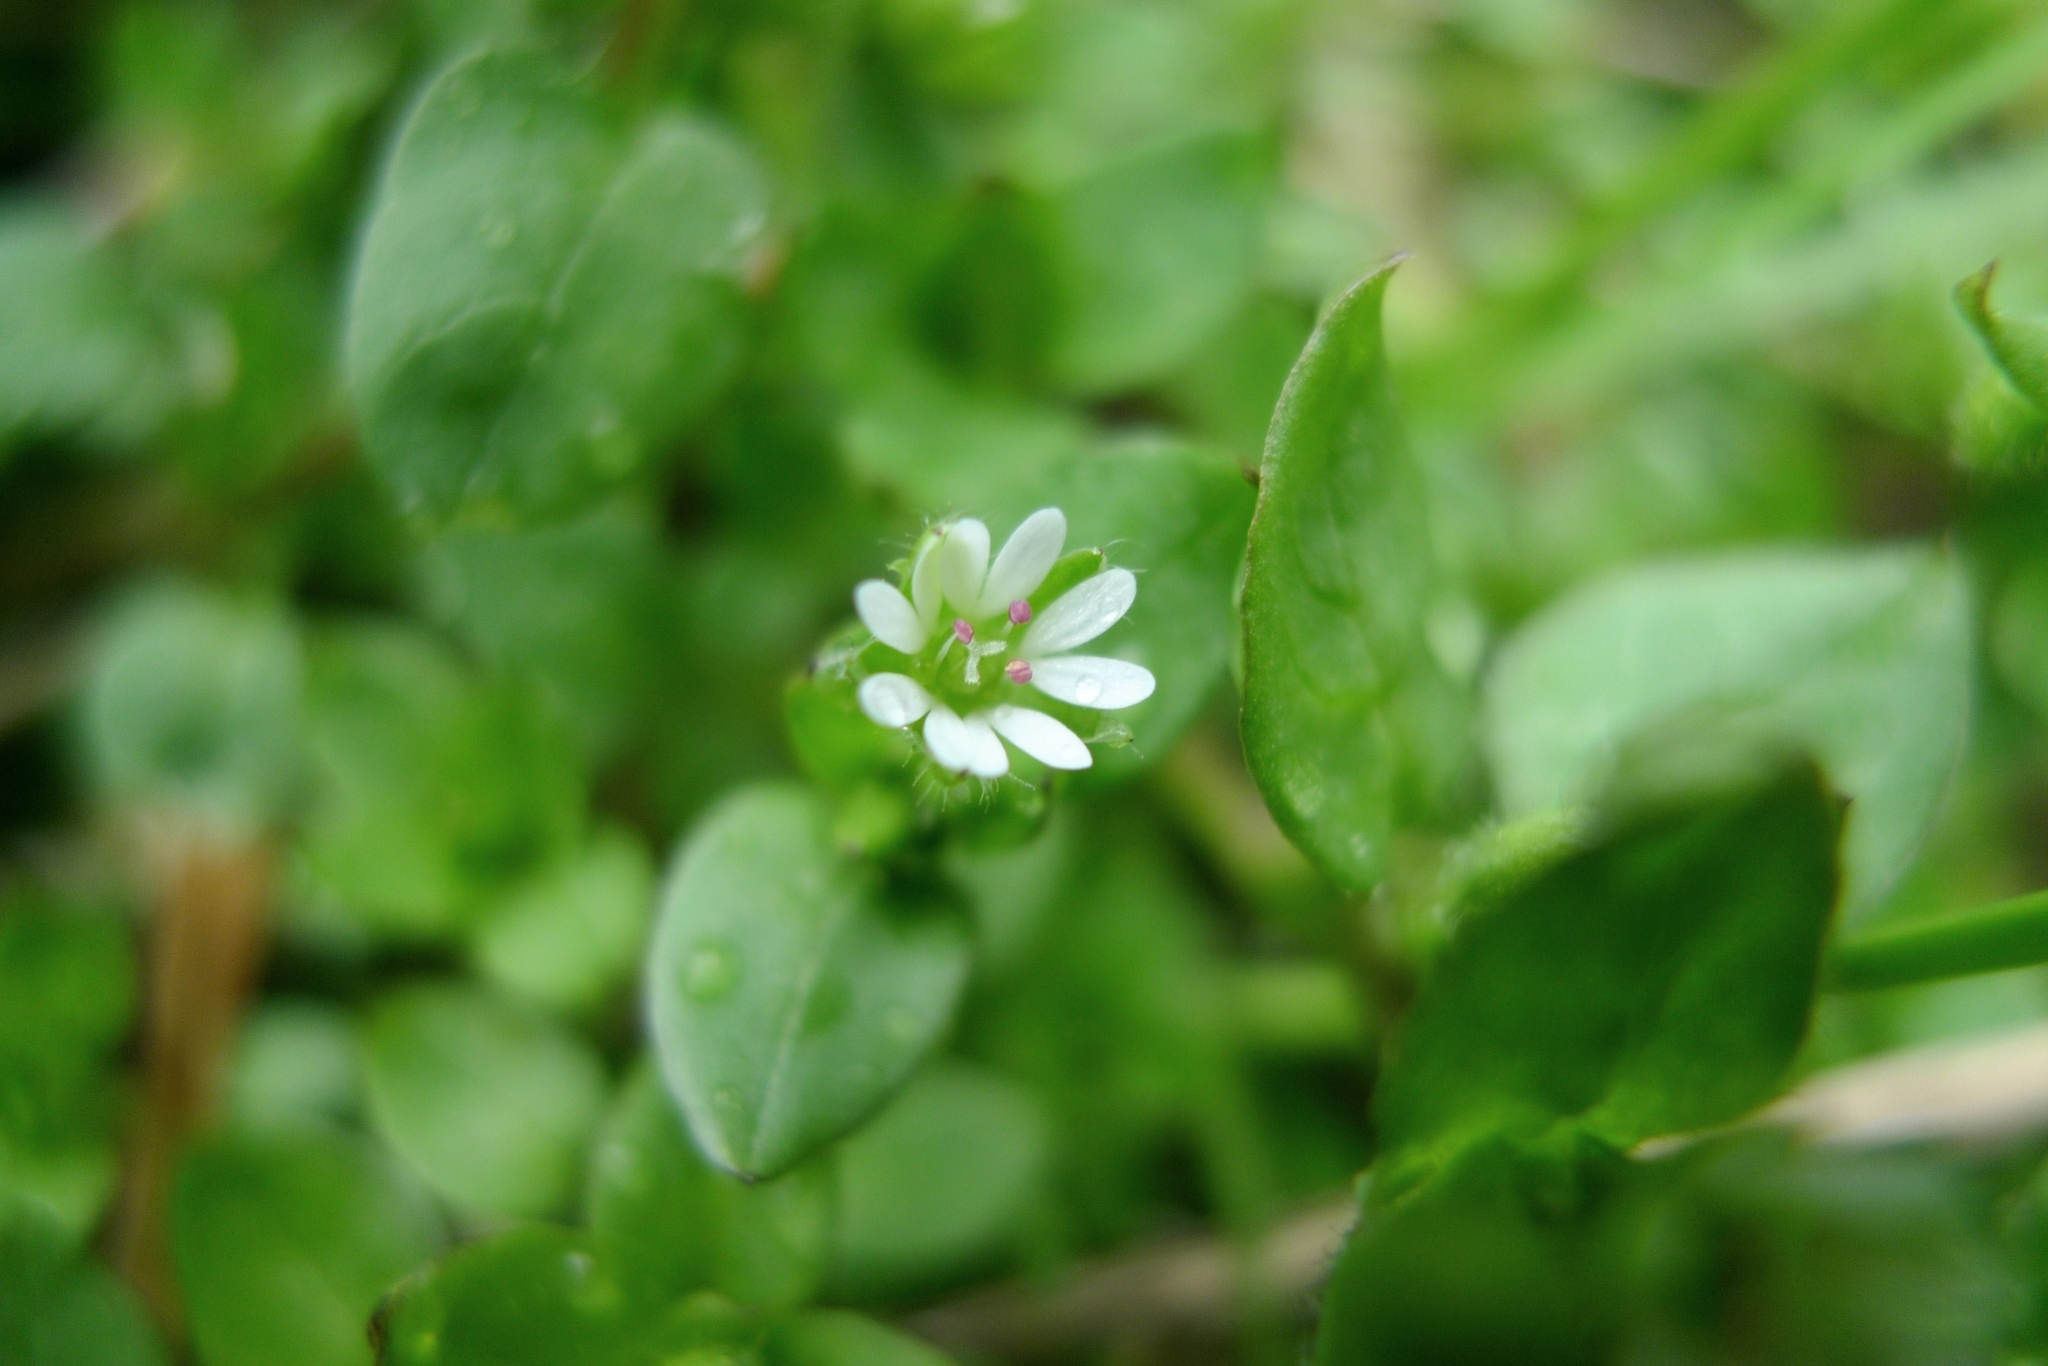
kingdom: Plantae
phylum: Tracheophyta
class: Magnoliopsida
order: Caryophyllales
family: Caryophyllaceae
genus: Stellaria
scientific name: Stellaria media
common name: Common chickweed
